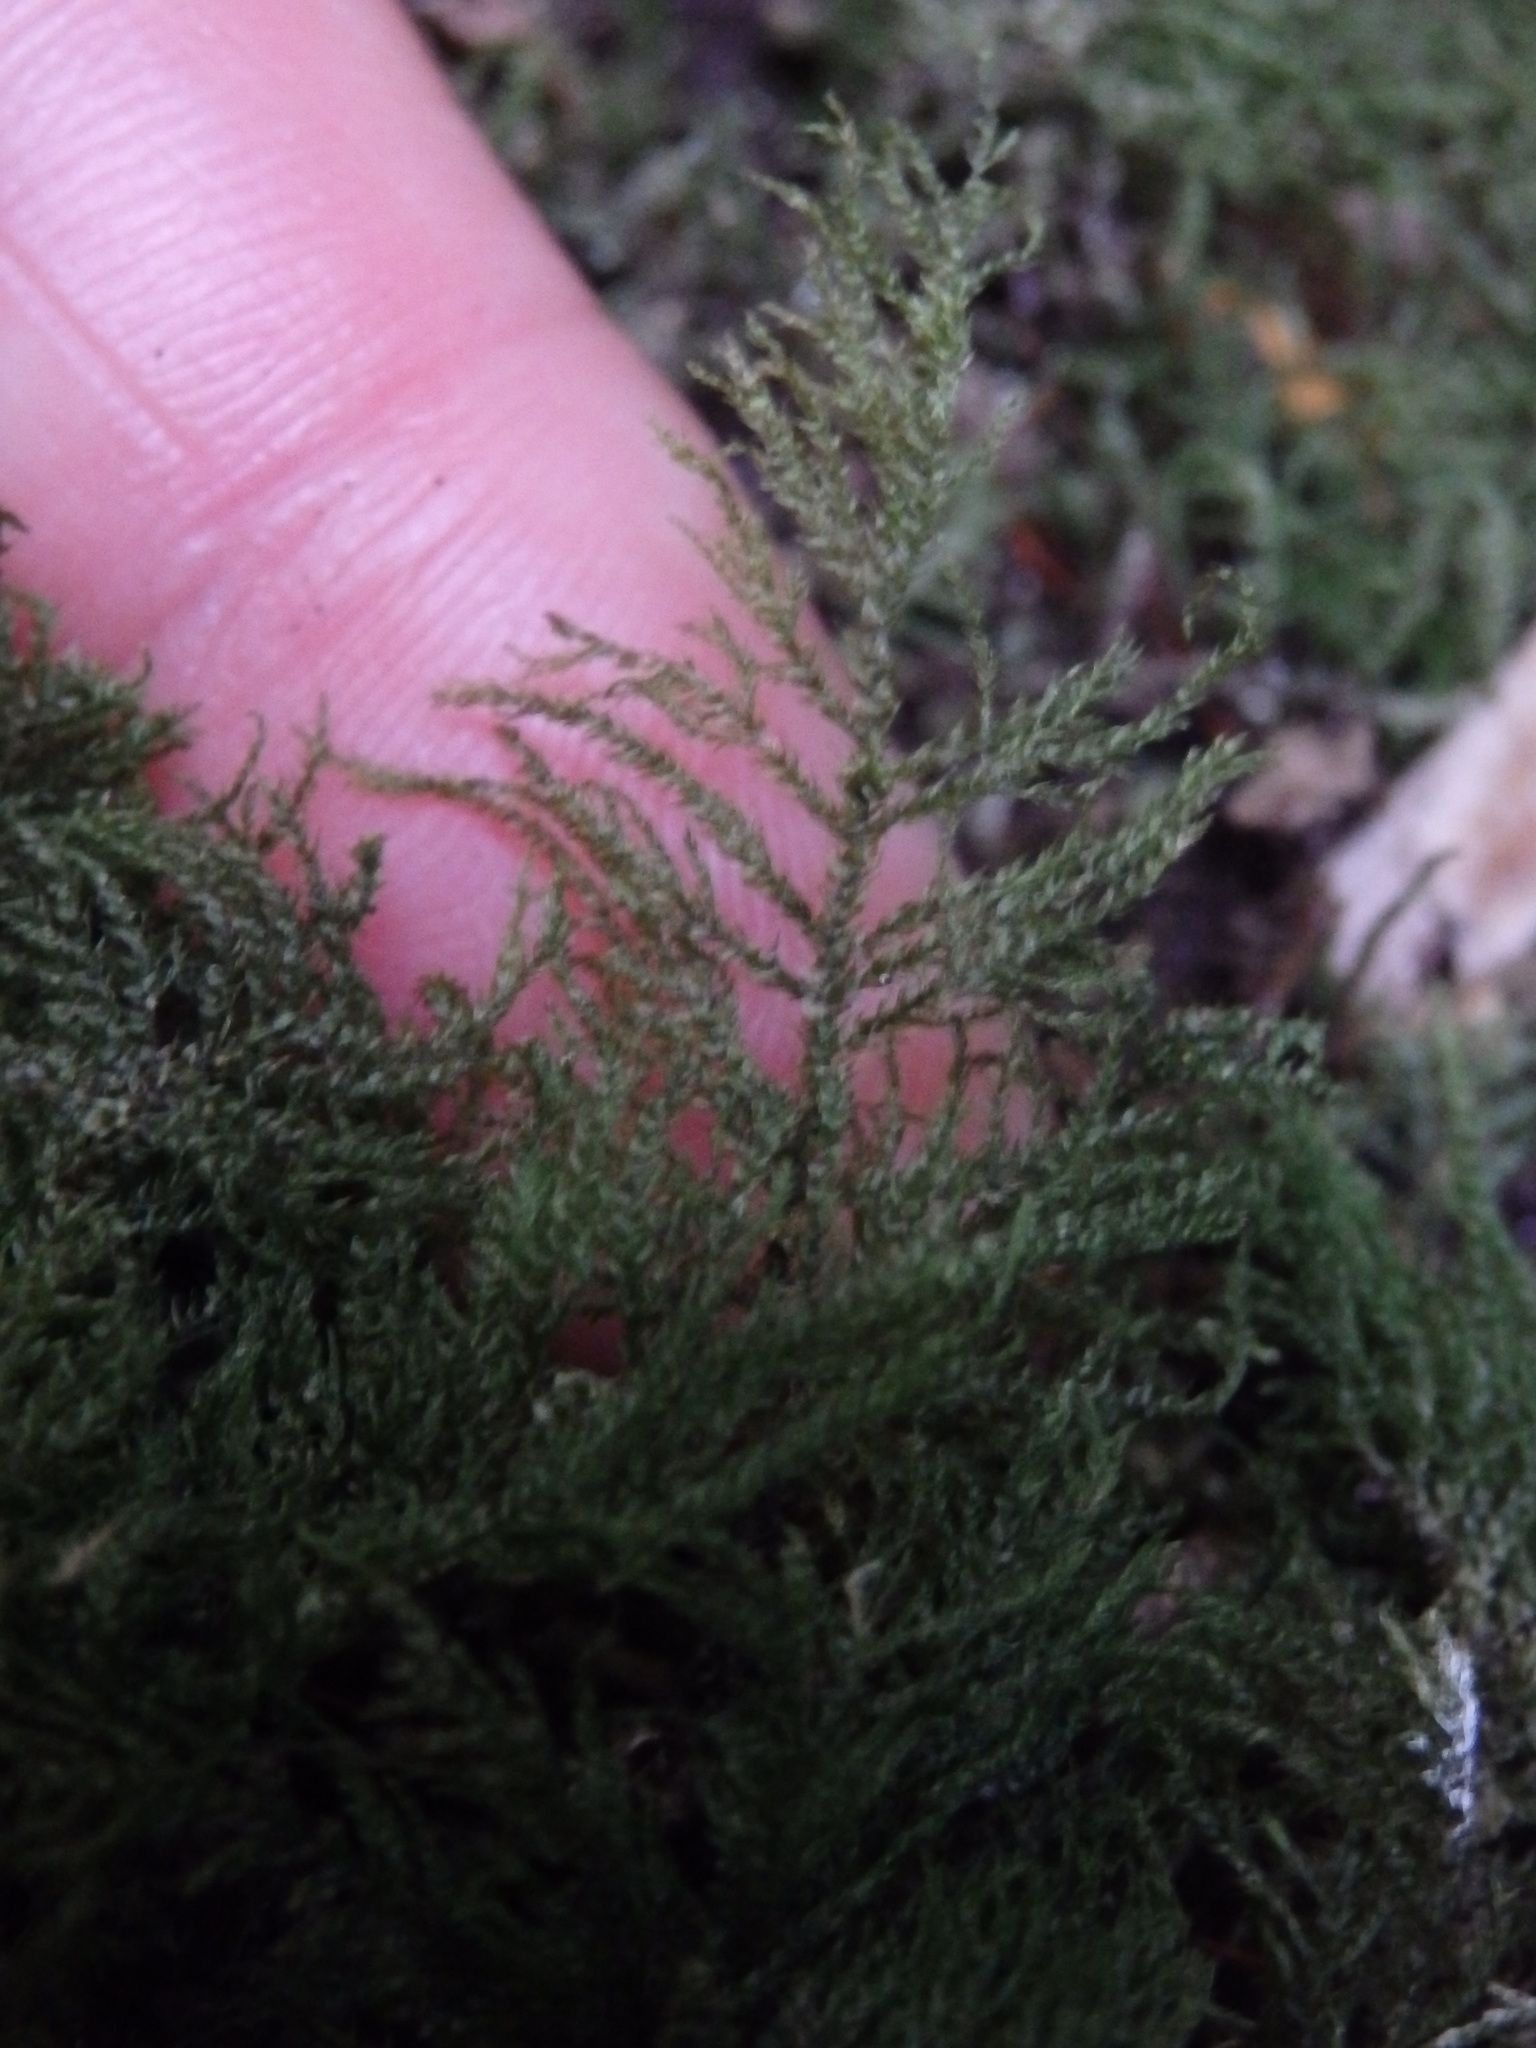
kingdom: Plantae
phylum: Bryophyta
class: Bryopsida
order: Hypnales
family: Brachytheciaceae
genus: Kindbergia
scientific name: Kindbergia praelonga
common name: Slender beaked moss
